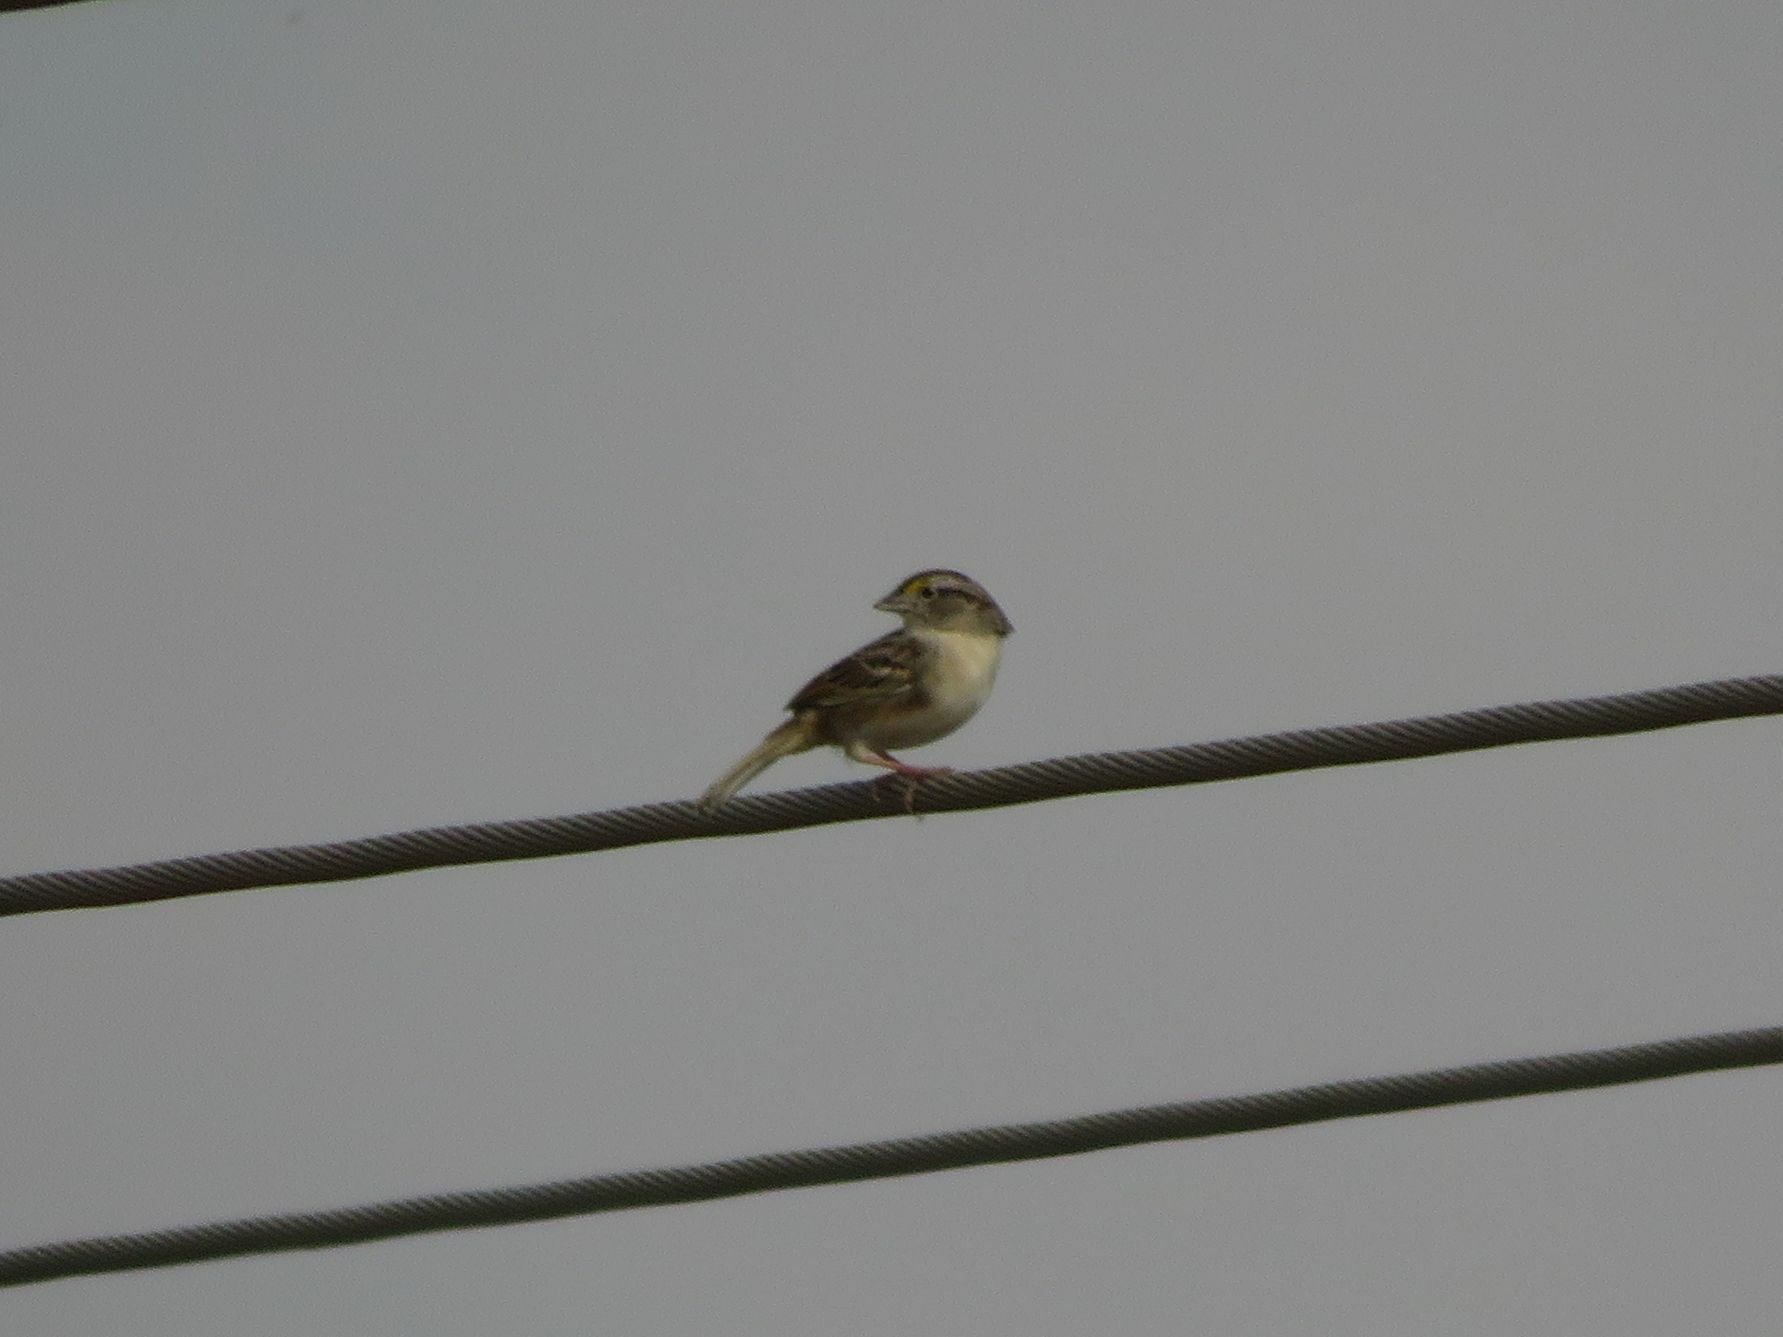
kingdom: Animalia
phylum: Chordata
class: Aves
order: Passeriformes
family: Passerellidae
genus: Ammodramus
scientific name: Ammodramus humeralis
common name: Grassland sparrow
